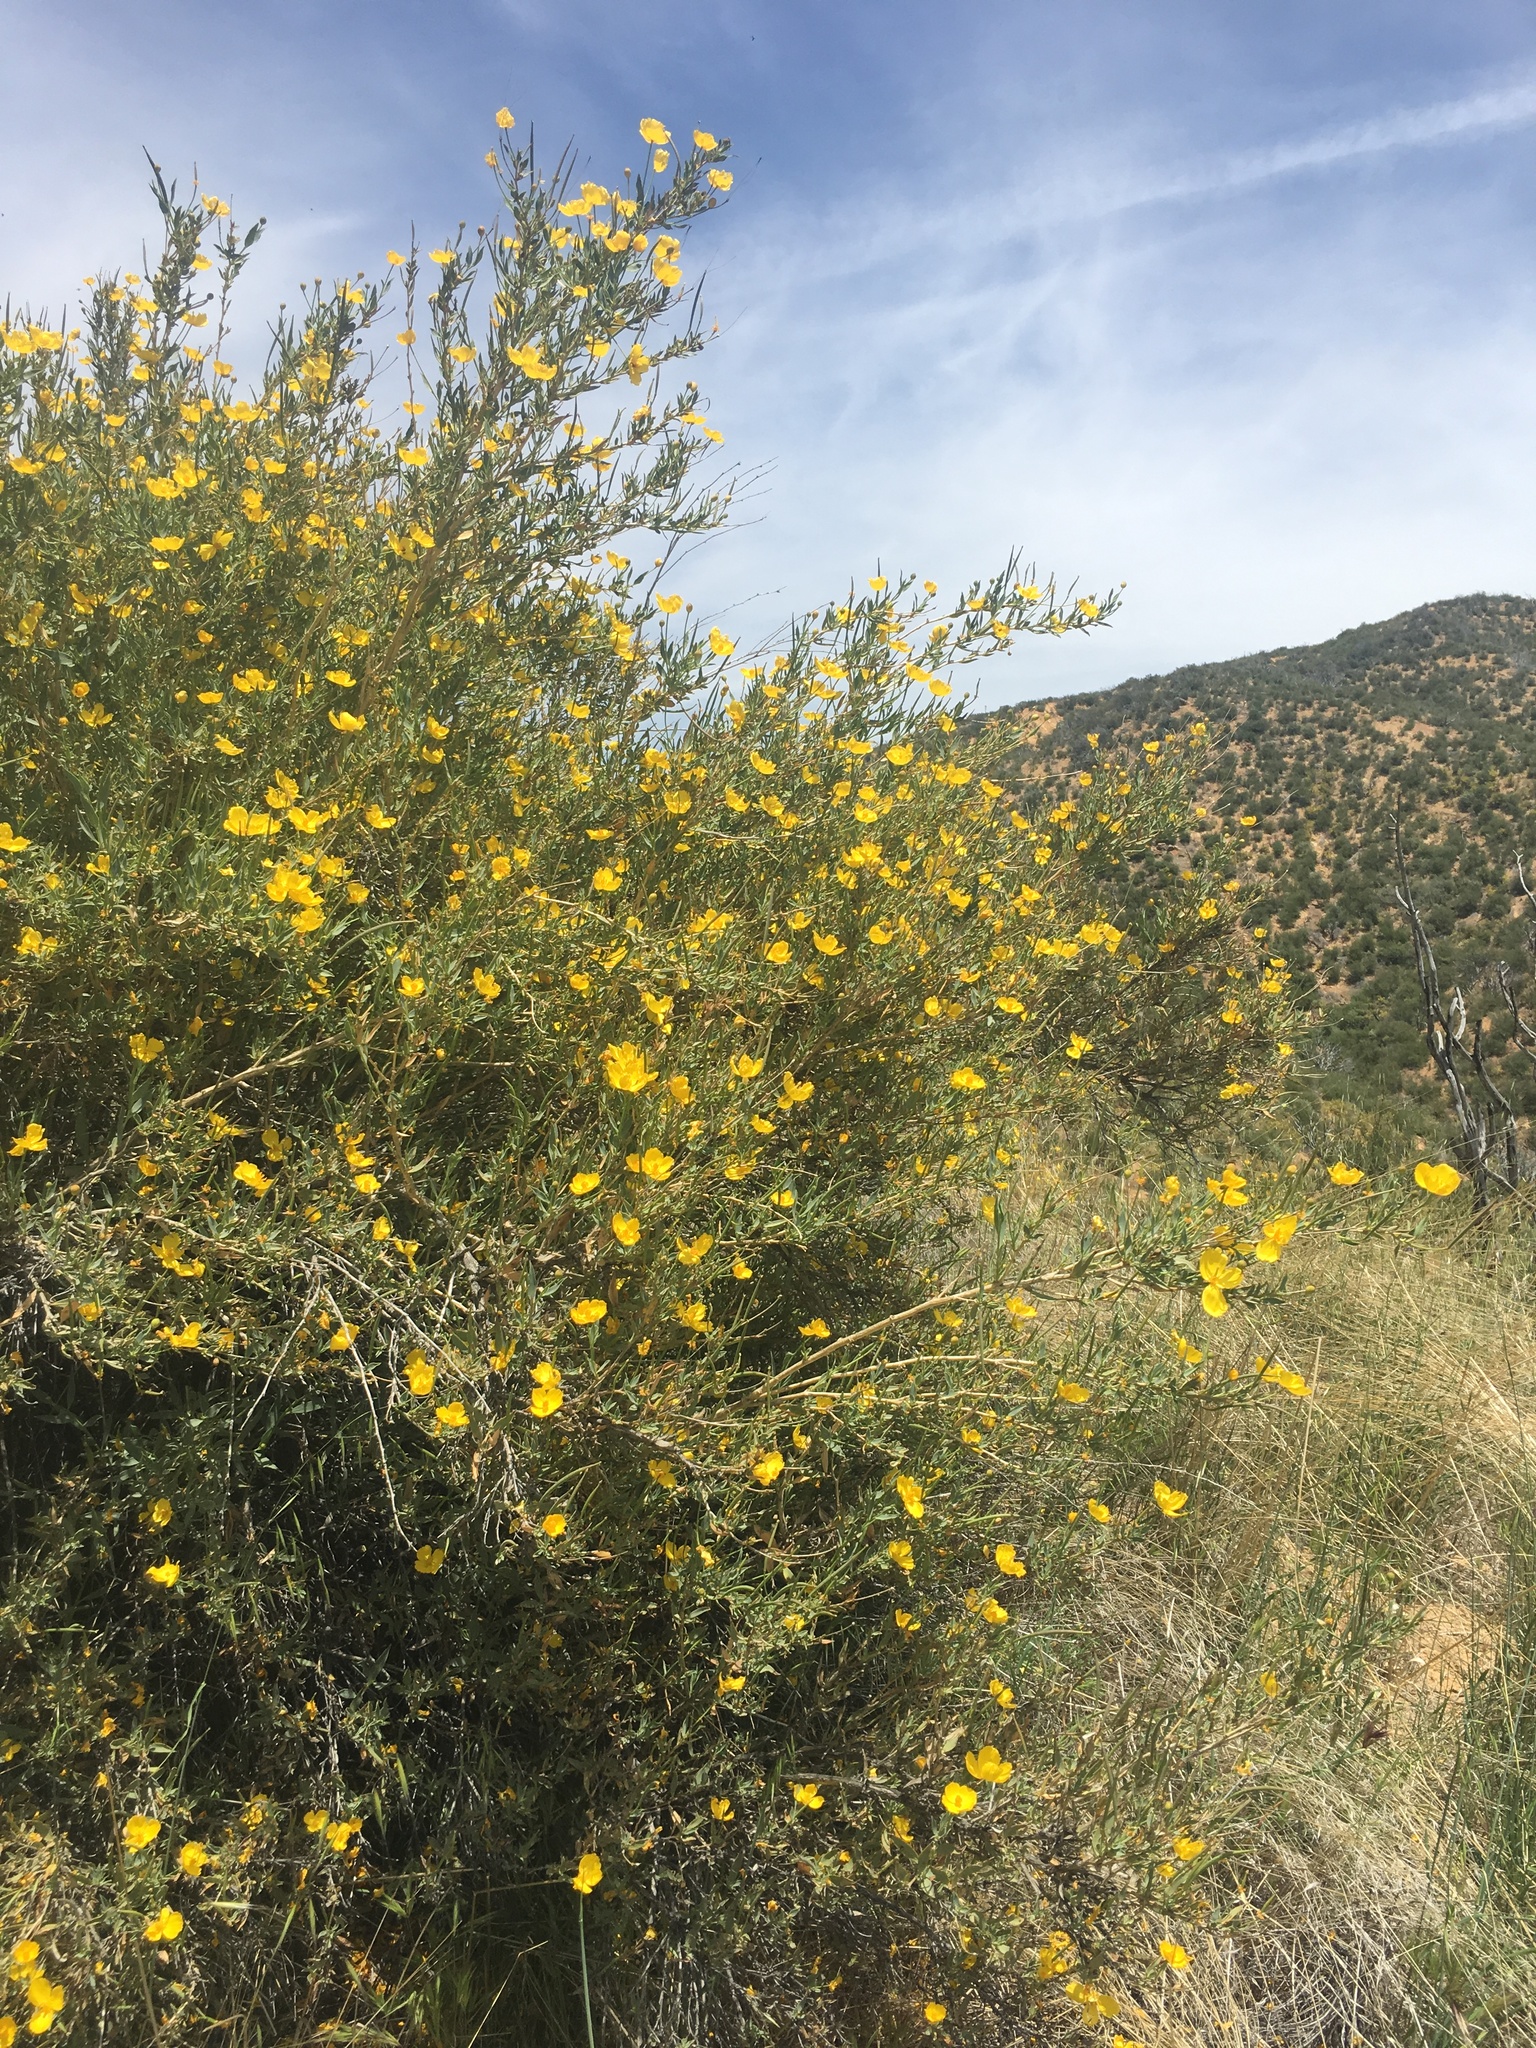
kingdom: Plantae
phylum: Tracheophyta
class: Magnoliopsida
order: Ranunculales
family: Papaveraceae
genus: Dendromecon
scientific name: Dendromecon rigida
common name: Tree poppy
